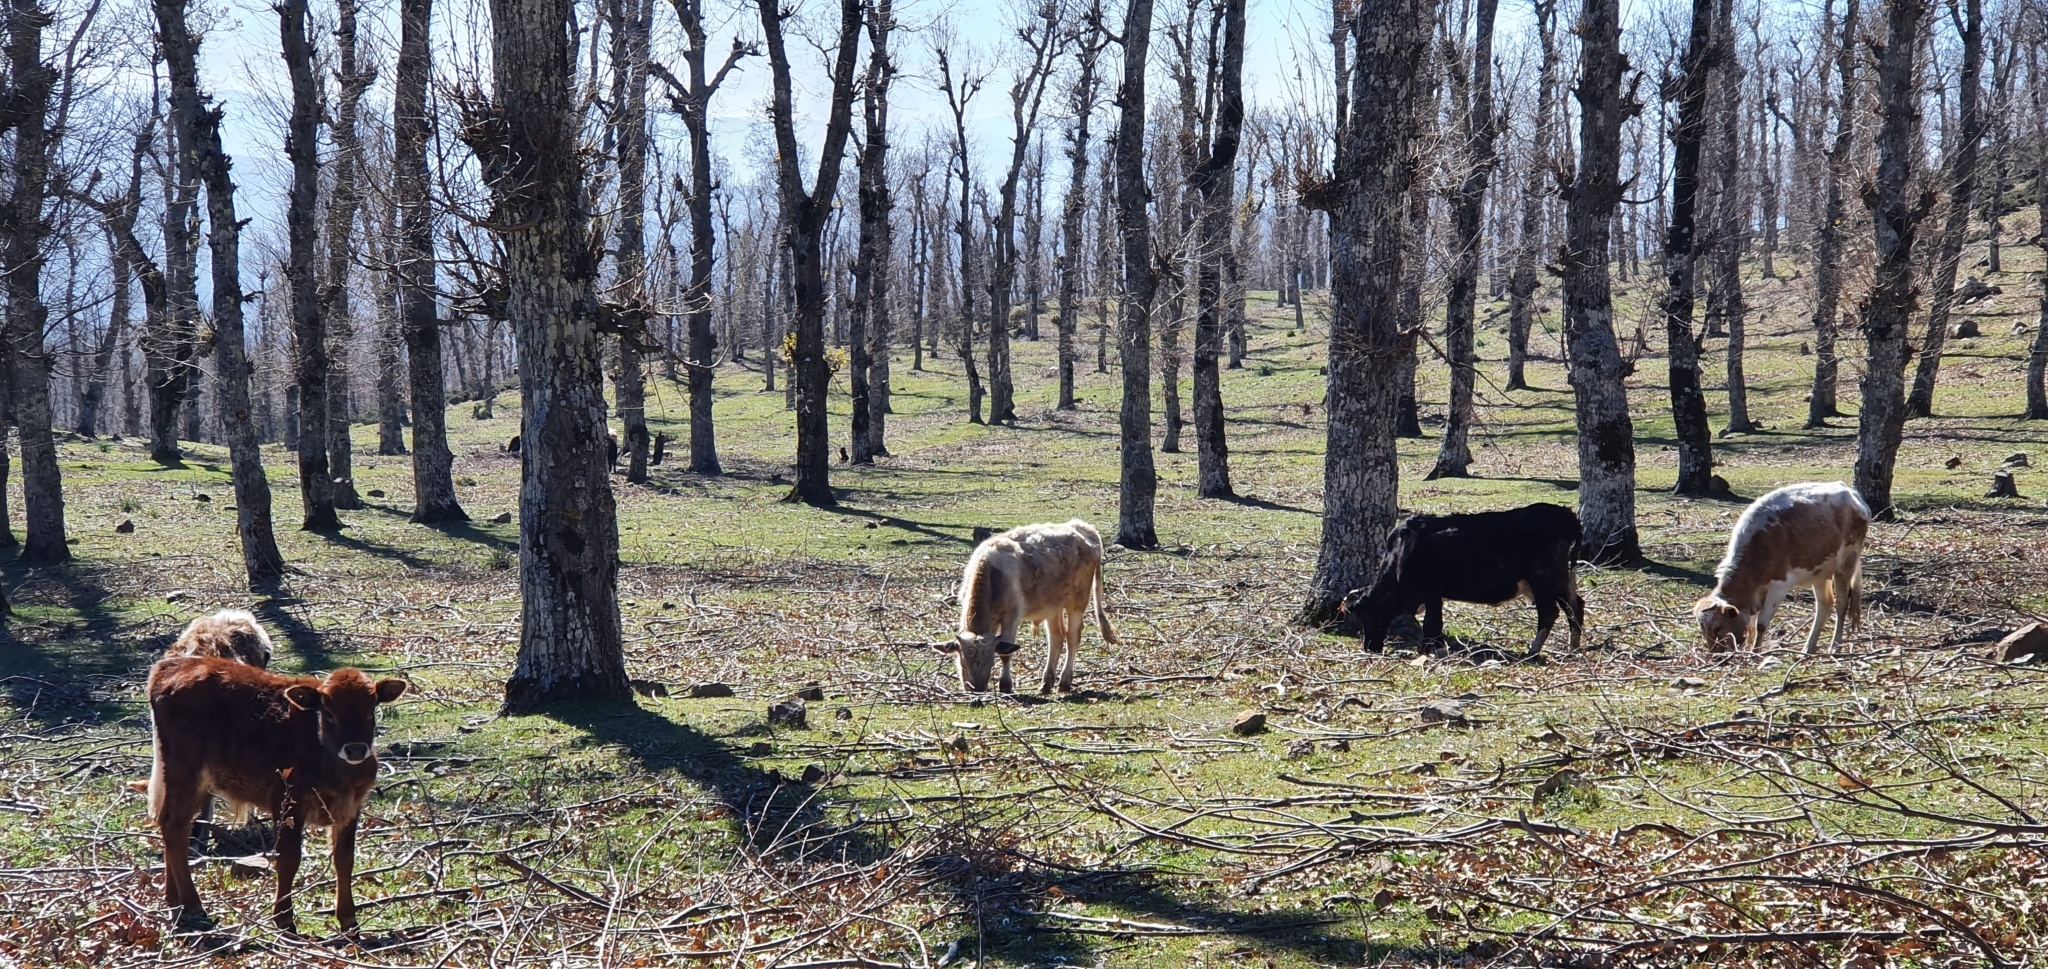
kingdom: Animalia
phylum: Chordata
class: Mammalia
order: Artiodactyla
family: Bovidae
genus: Bos
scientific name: Bos taurus
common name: Domesticated cattle
